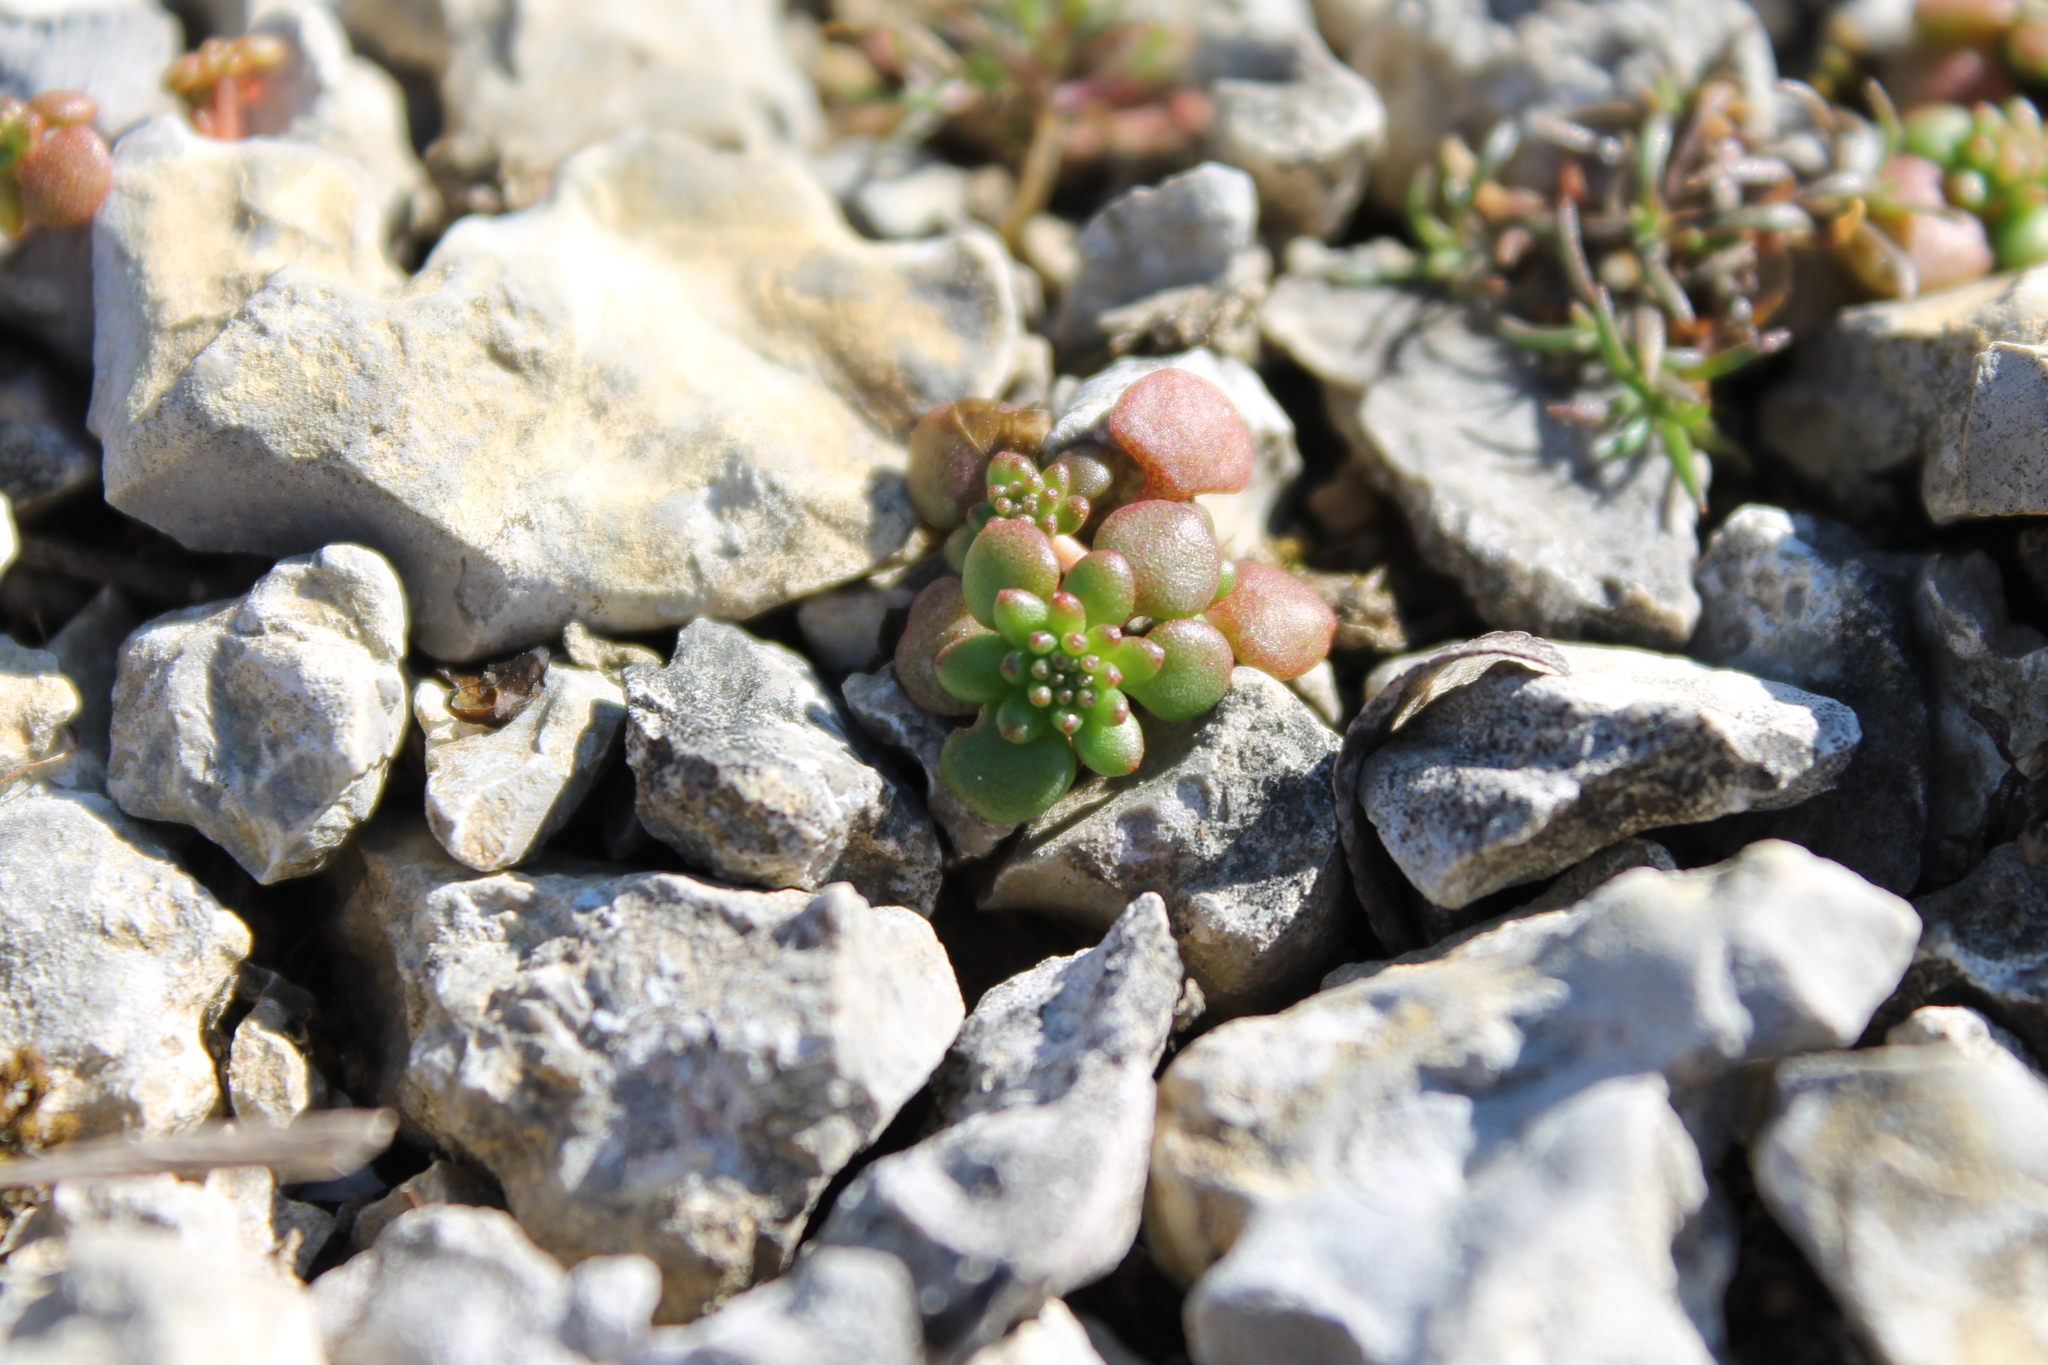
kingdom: Plantae
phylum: Tracheophyta
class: Magnoliopsida
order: Saxifragales
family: Crassulaceae
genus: Sedum
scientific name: Sedum pulchellum
